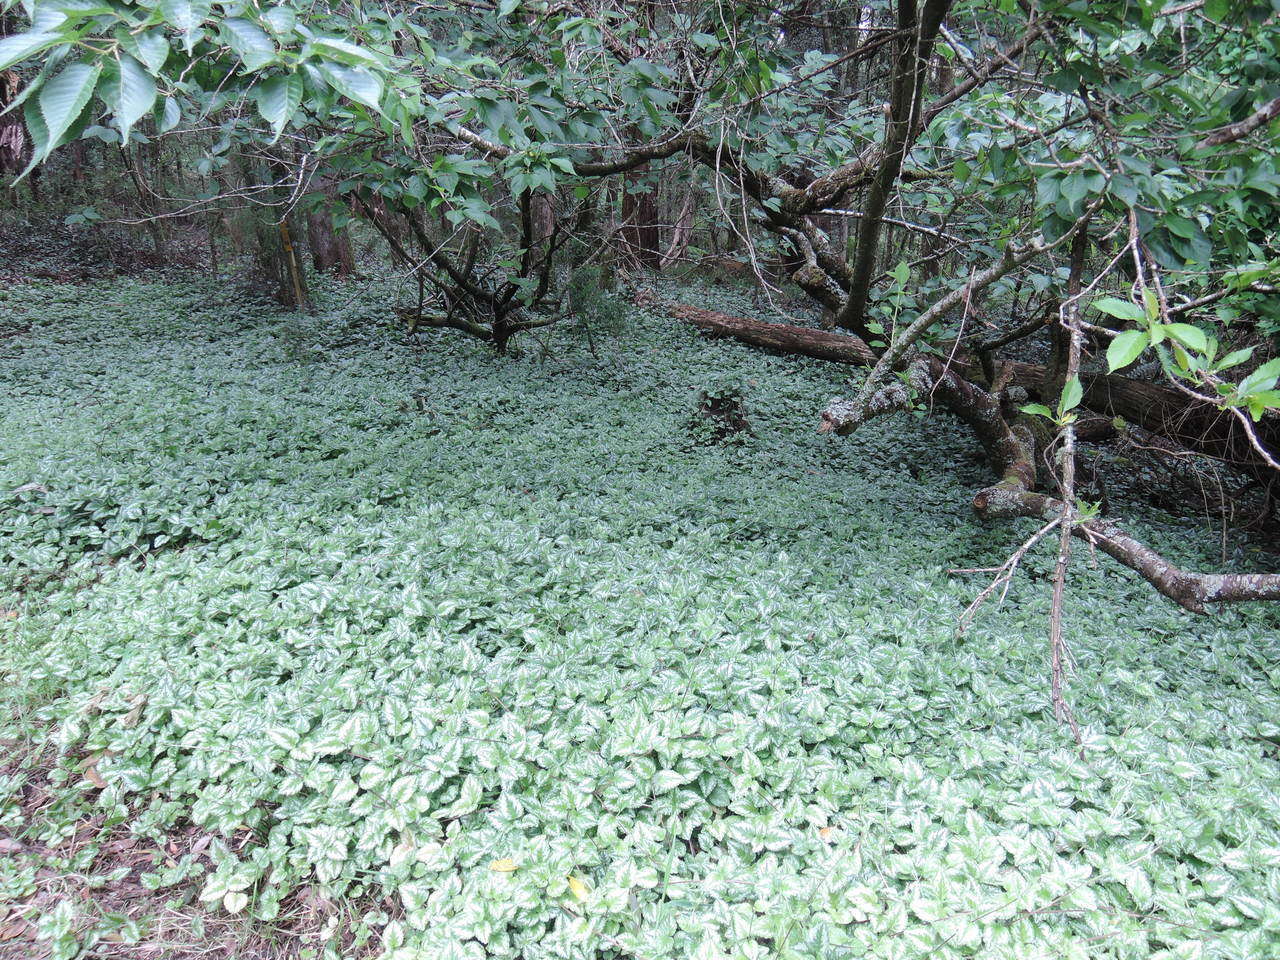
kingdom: Plantae
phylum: Tracheophyta
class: Magnoliopsida
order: Lamiales
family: Lamiaceae
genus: Lamium
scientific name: Lamium galeobdolon
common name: Yellow archangel
